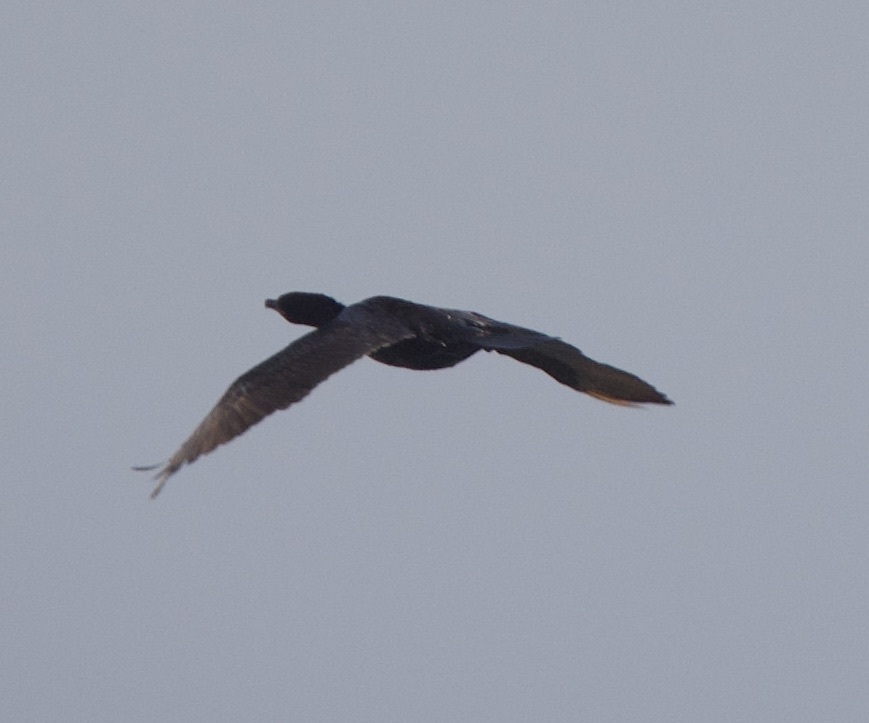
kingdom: Animalia
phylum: Chordata
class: Aves
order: Suliformes
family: Phalacrocoracidae
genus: Phalacrocorax
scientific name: Phalacrocorax brasilianus
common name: Neotropic cormorant
